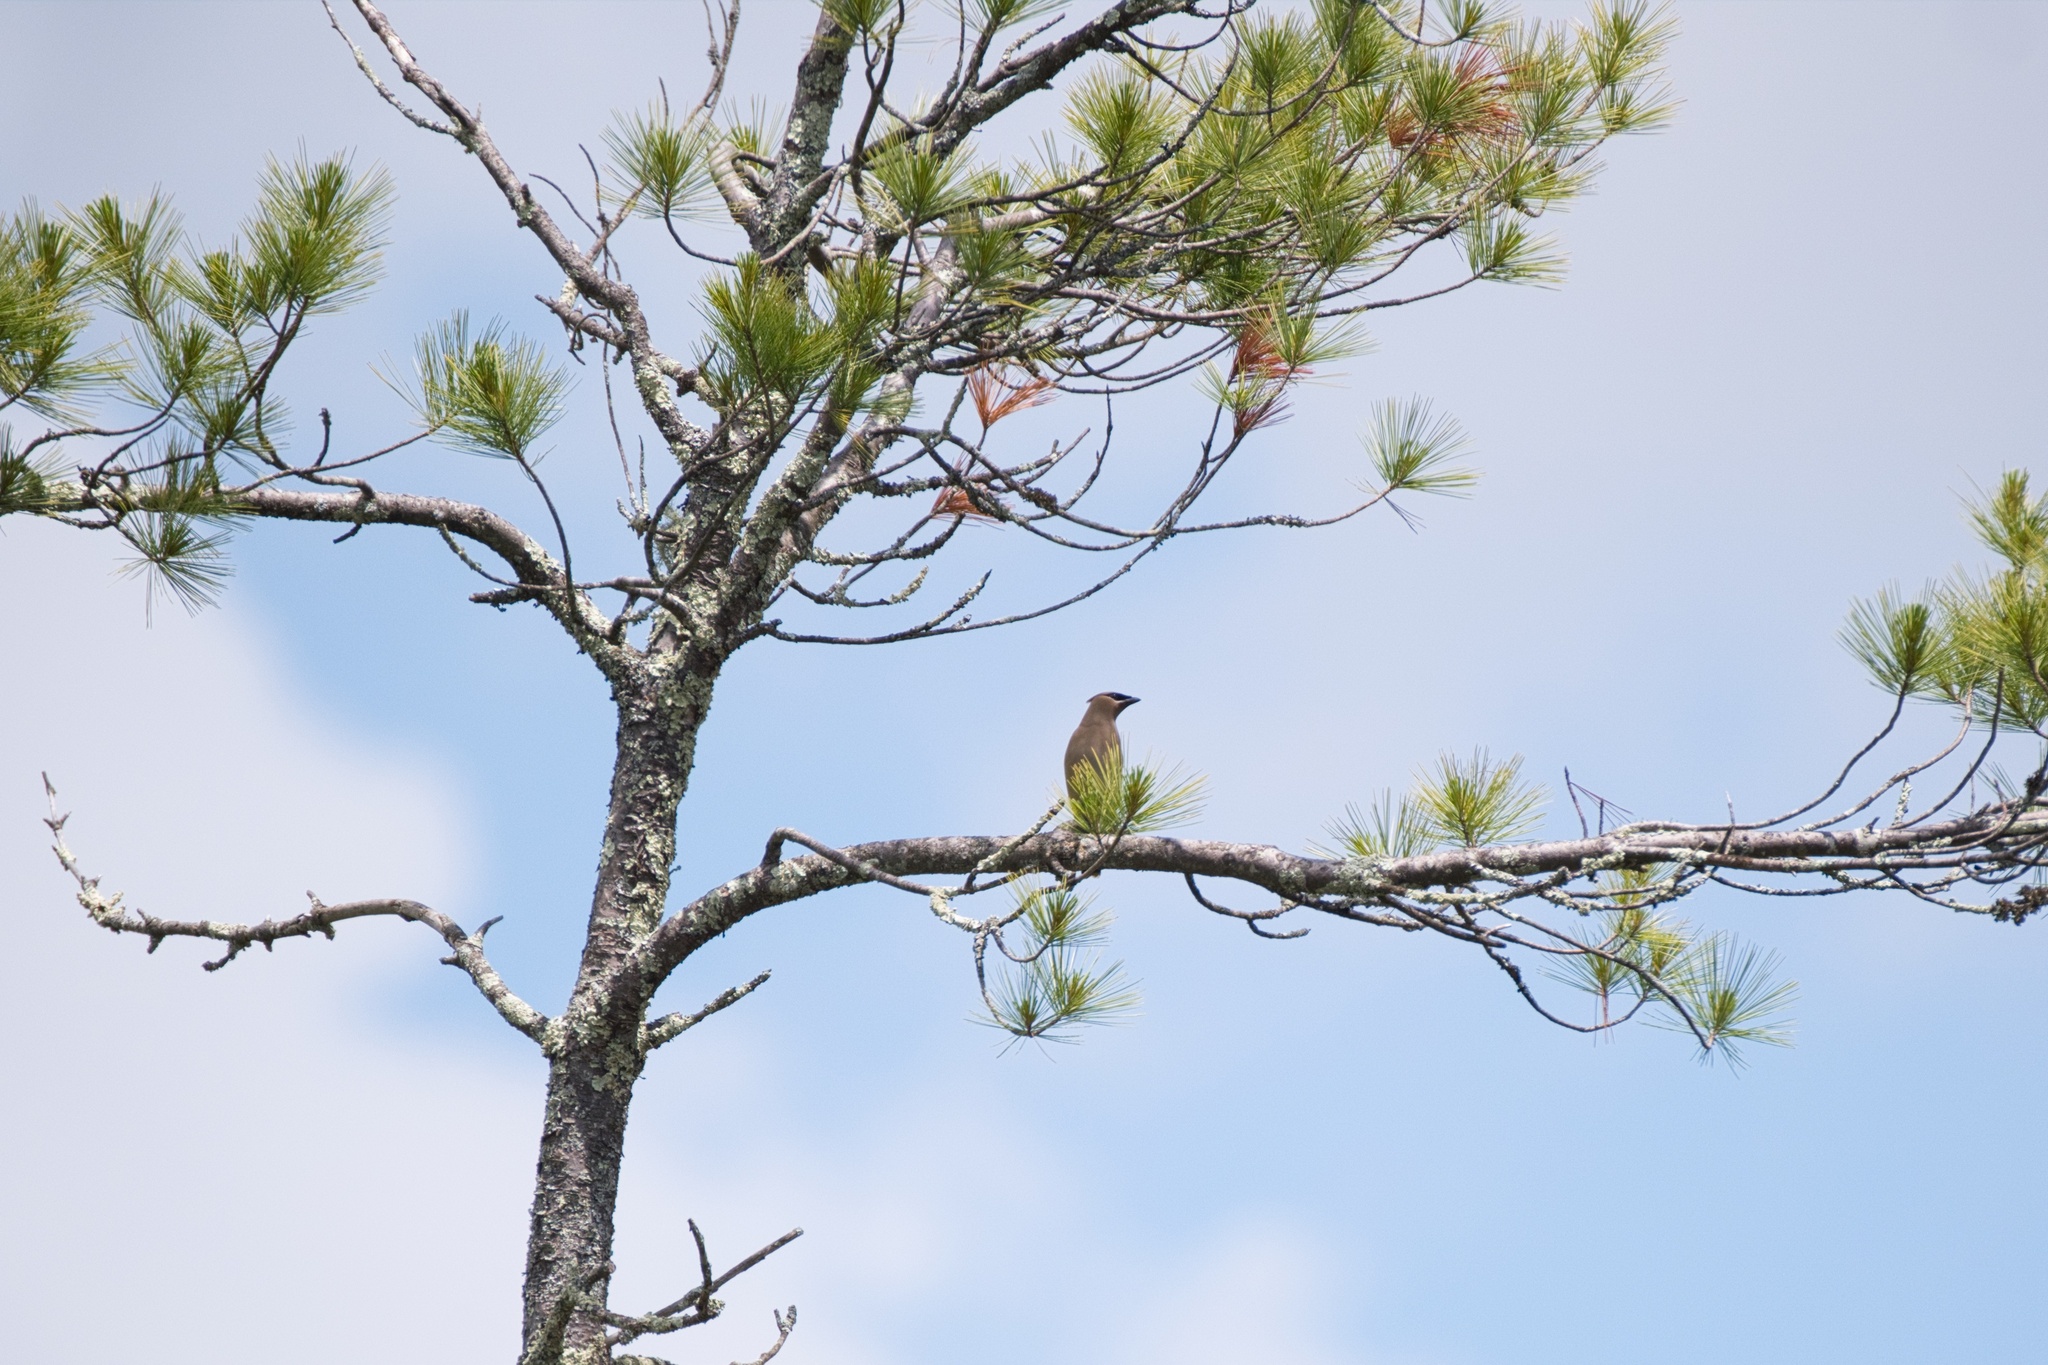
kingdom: Animalia
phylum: Chordata
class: Aves
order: Passeriformes
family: Bombycillidae
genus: Bombycilla
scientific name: Bombycilla cedrorum
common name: Cedar waxwing
